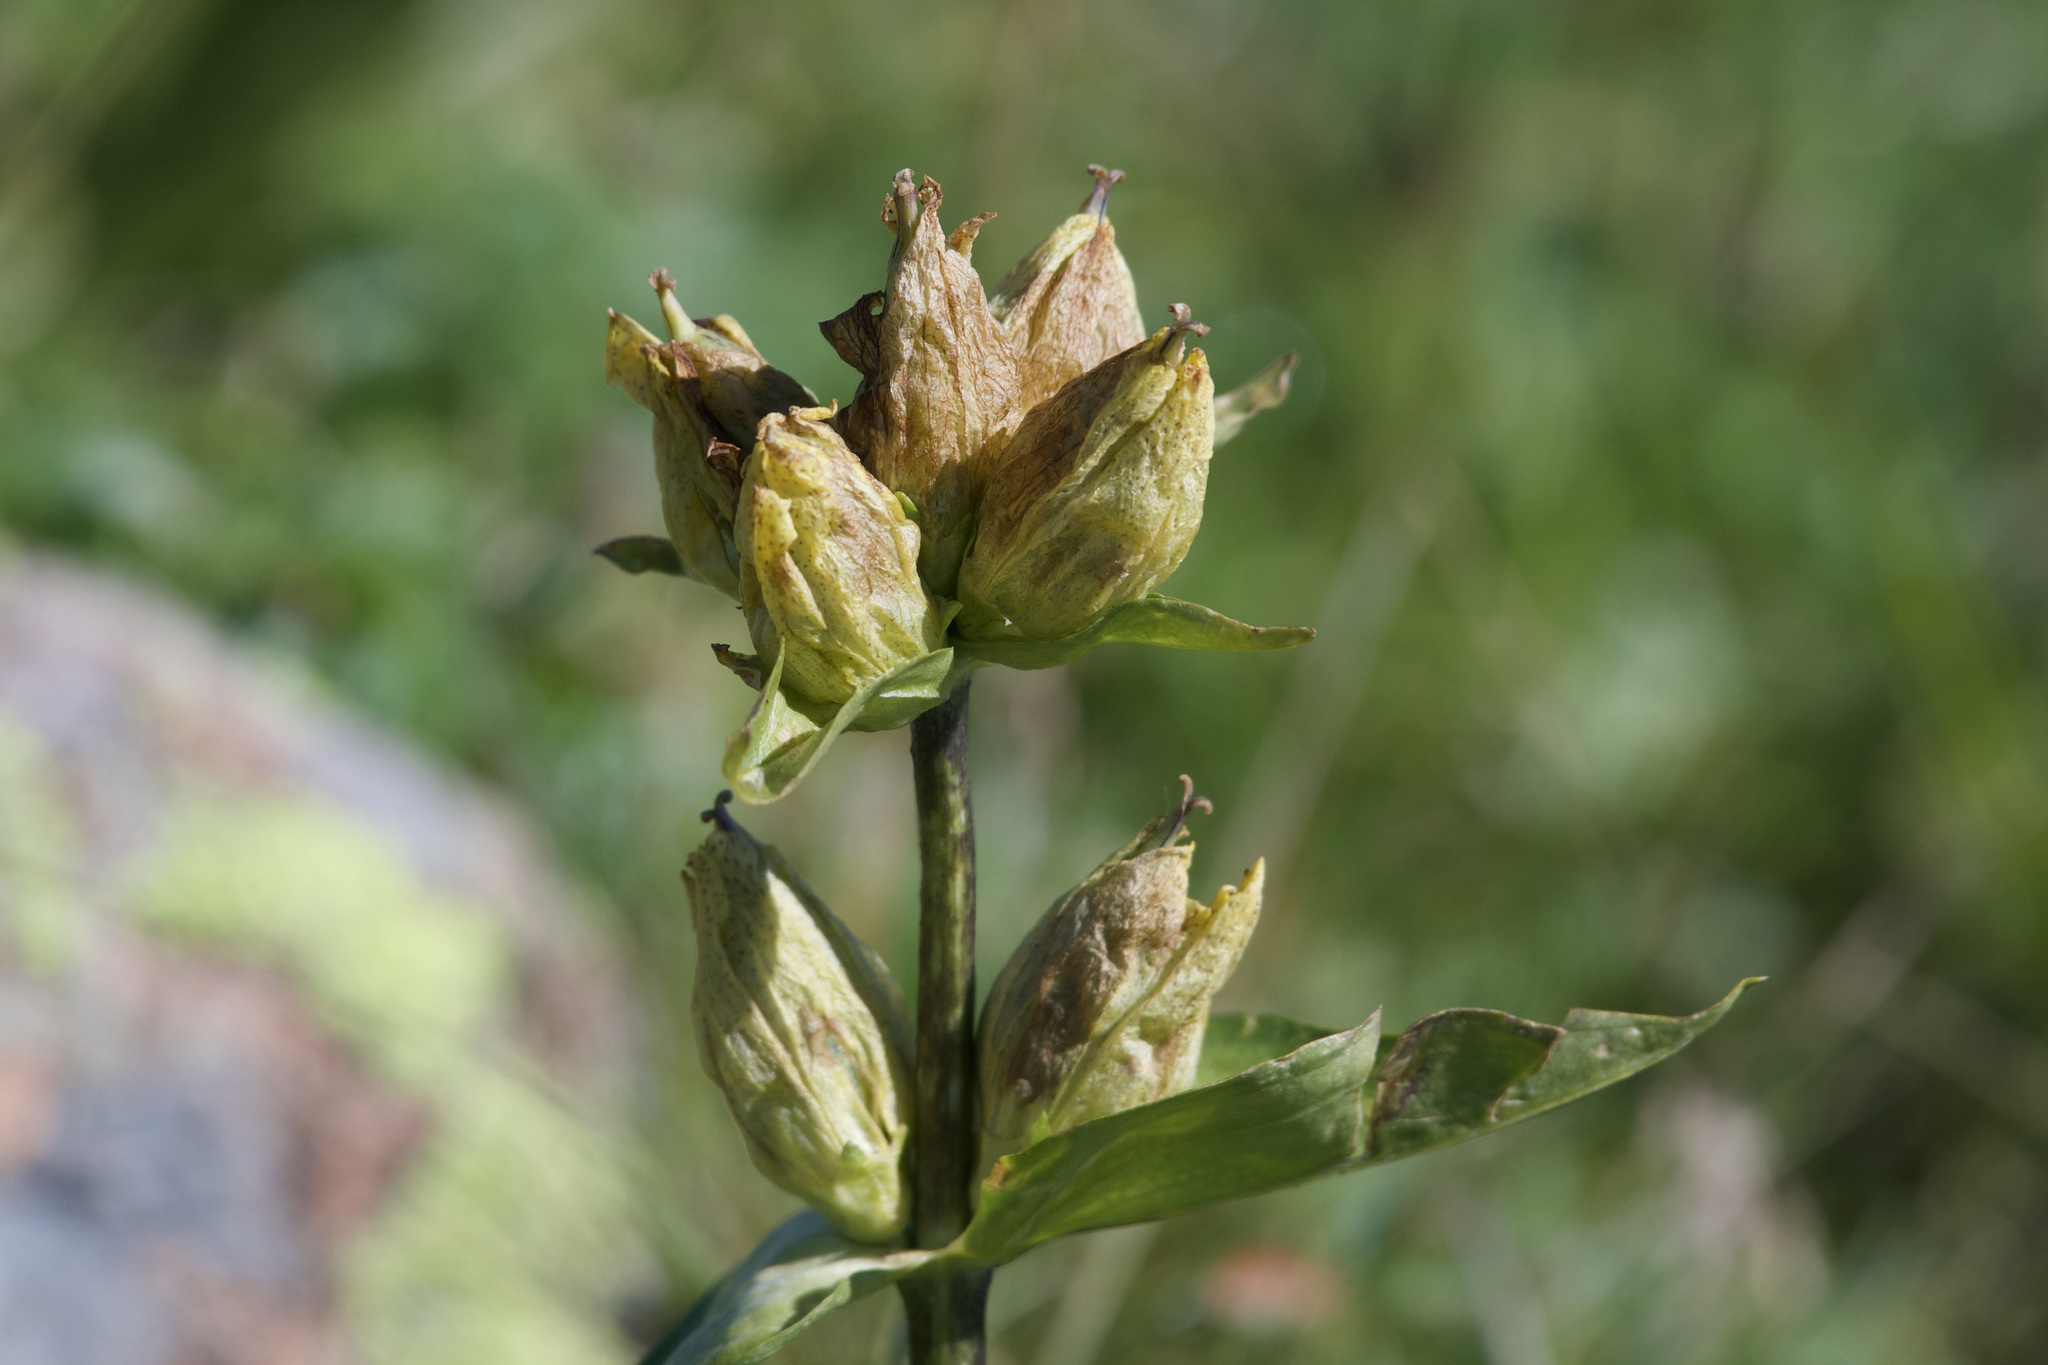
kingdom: Plantae
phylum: Tracheophyta
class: Magnoliopsida
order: Gentianales
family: Gentianaceae
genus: Gentiana
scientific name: Gentiana punctata
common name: Spotted gentian
